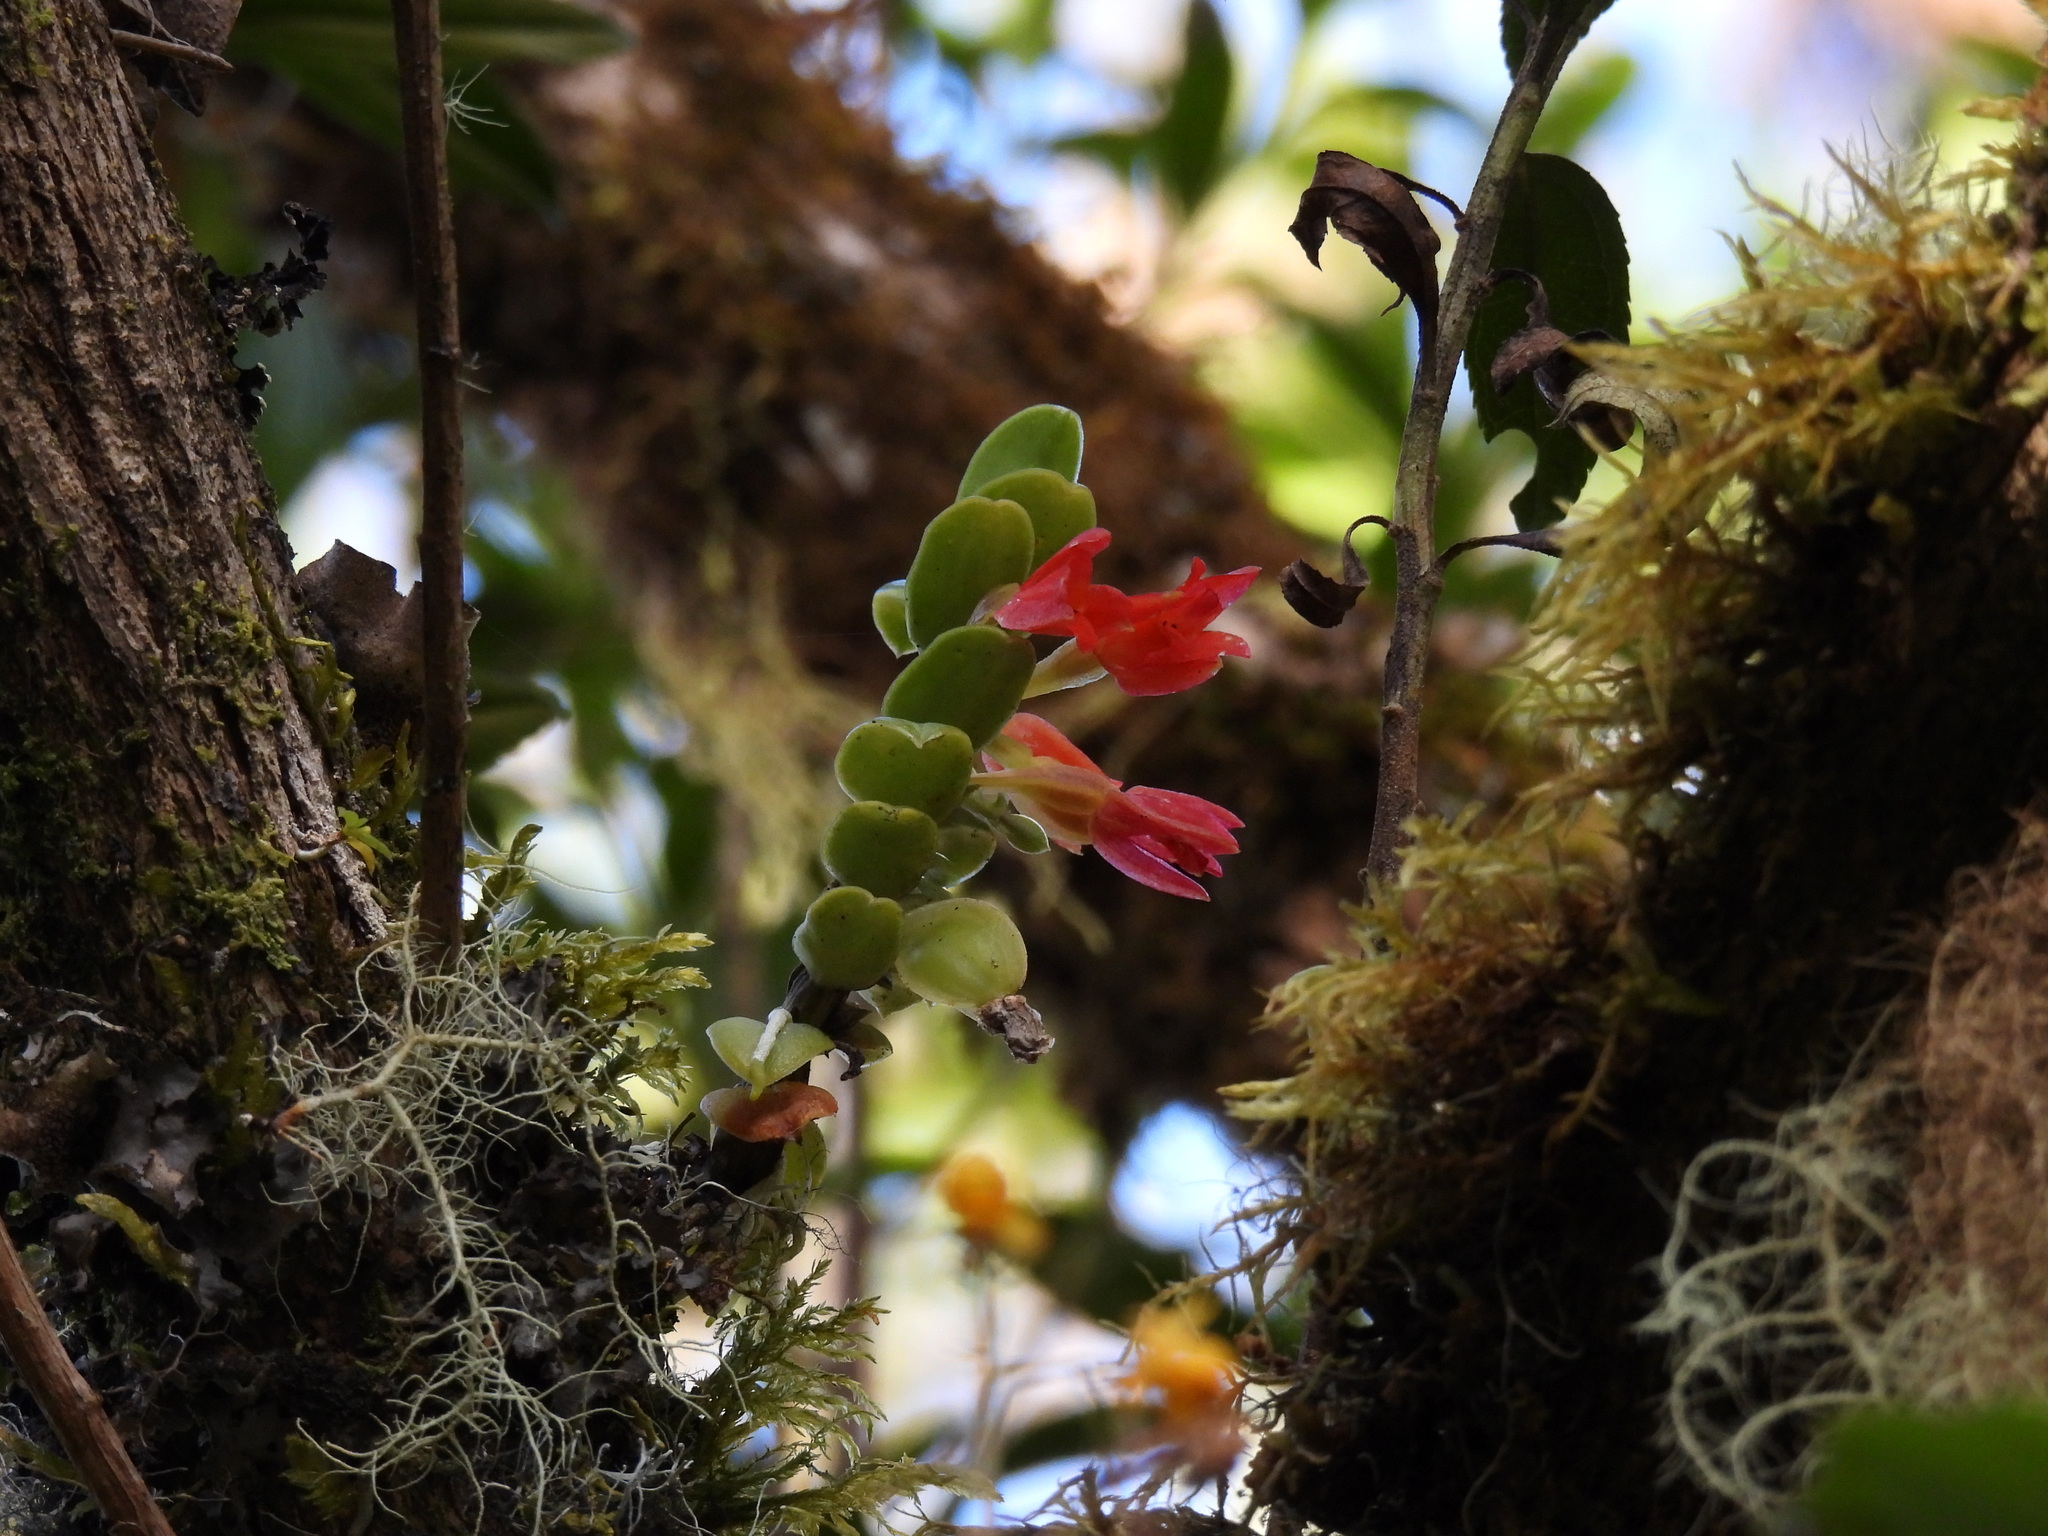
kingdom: Plantae
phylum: Tracheophyta
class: Liliopsida
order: Asparagales
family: Orchidaceae
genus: Fernandezia
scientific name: Fernandezia sanguinea
